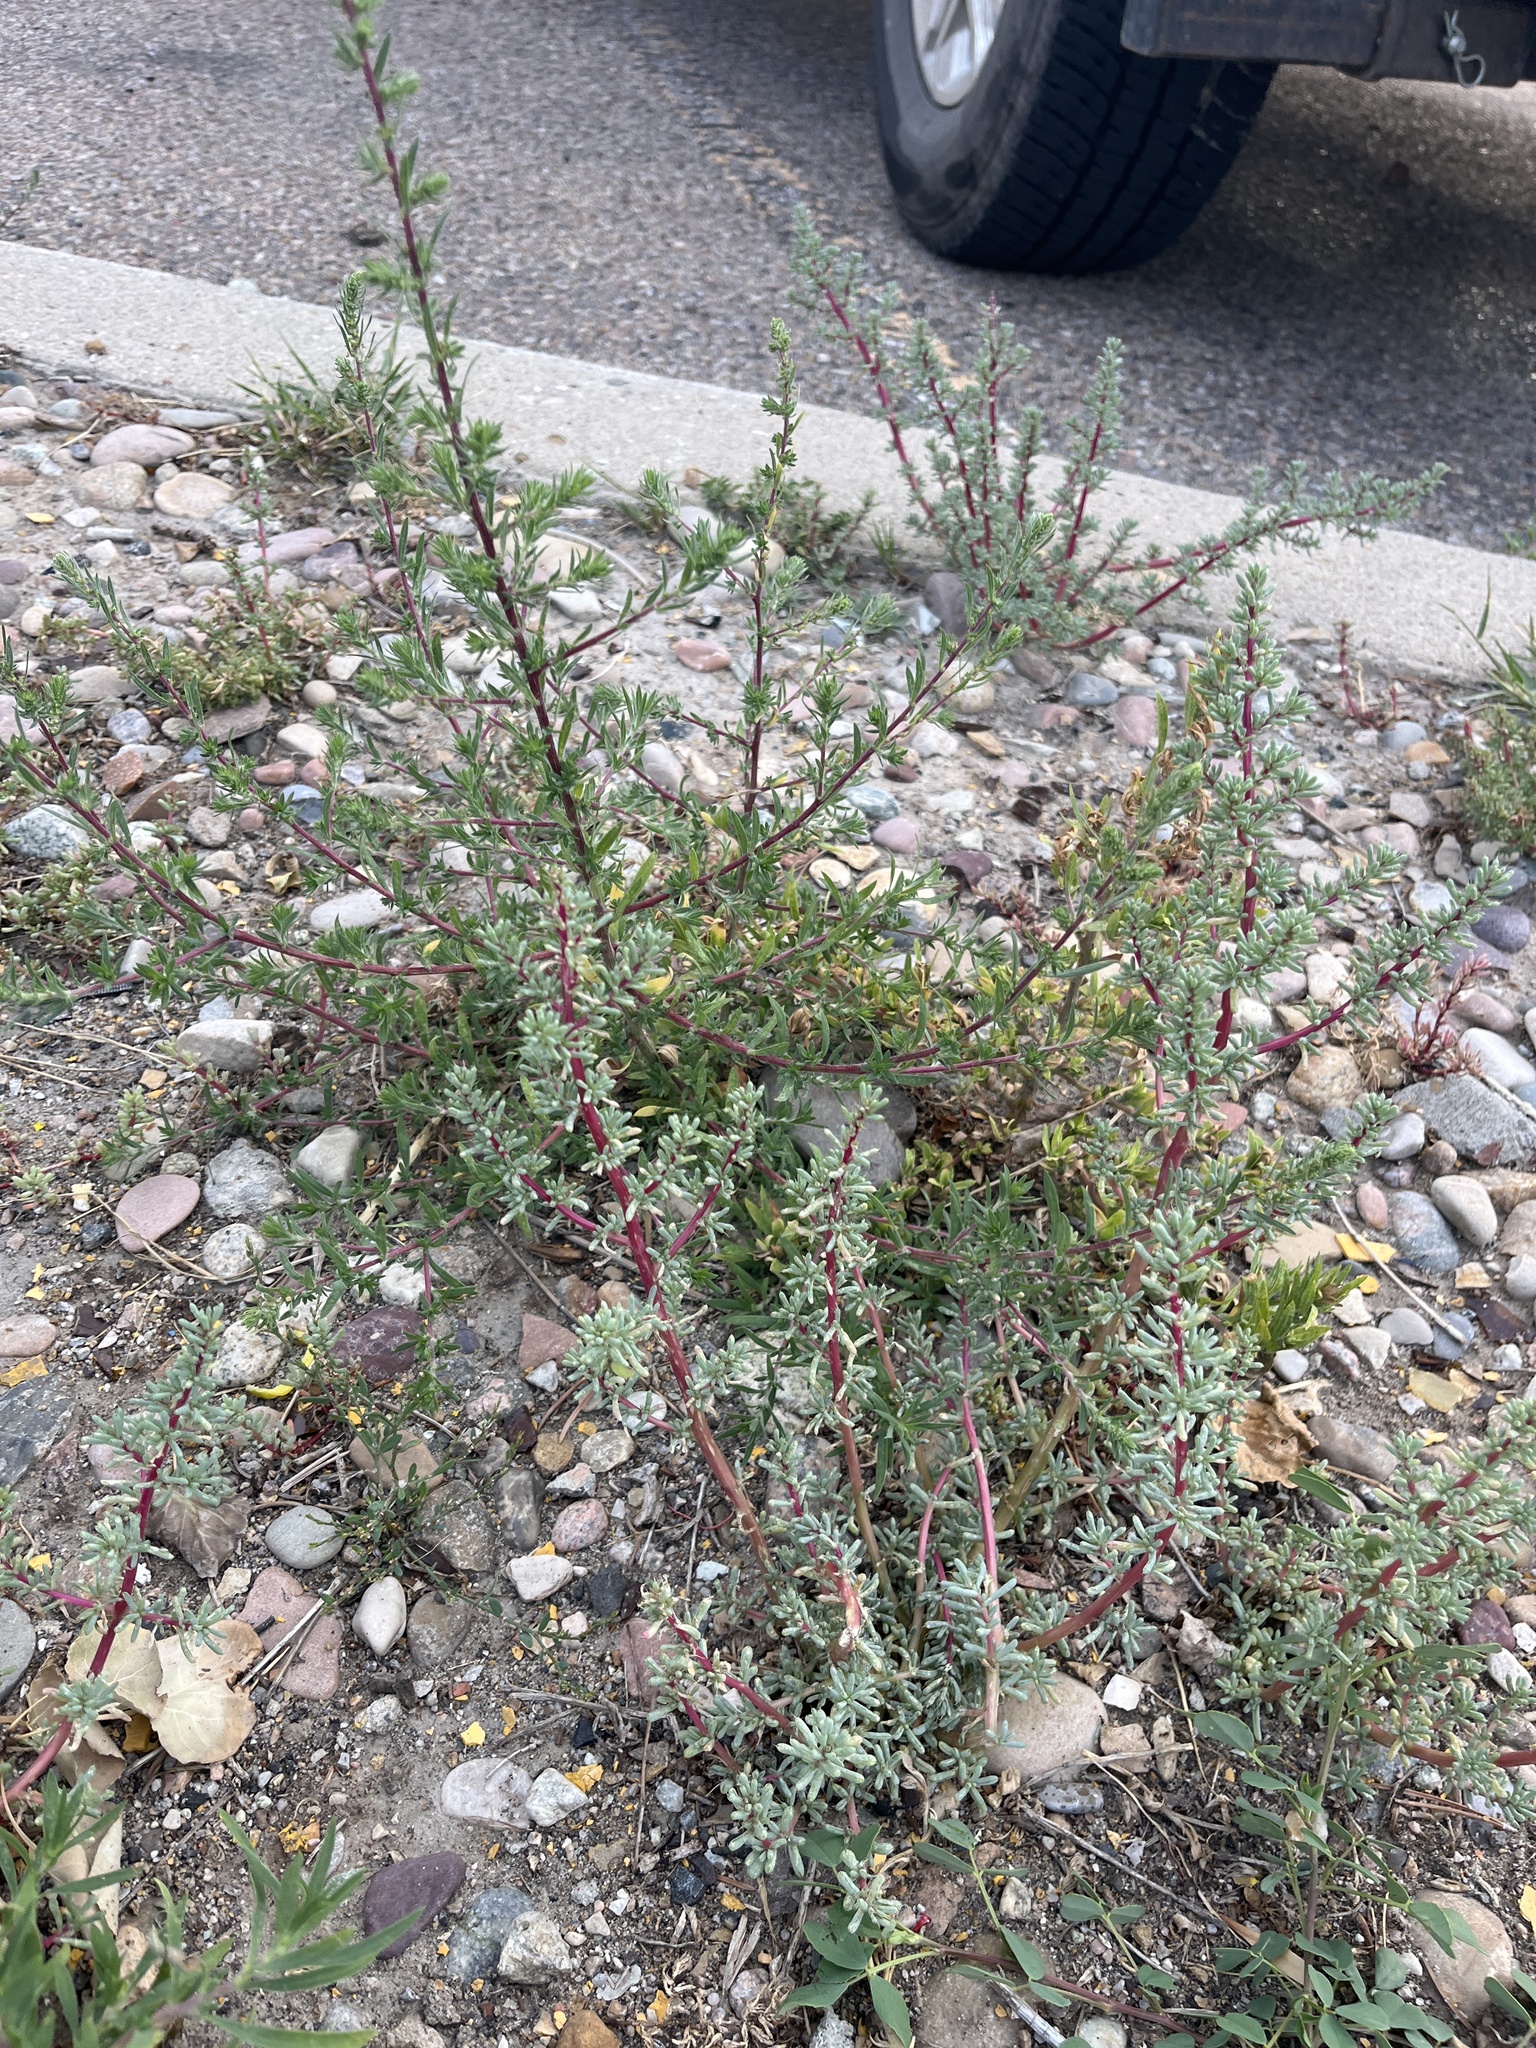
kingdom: Plantae
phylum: Tracheophyta
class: Magnoliopsida
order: Caryophyllales
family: Amaranthaceae
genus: Halogeton
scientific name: Halogeton glomeratus
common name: Saltlover
